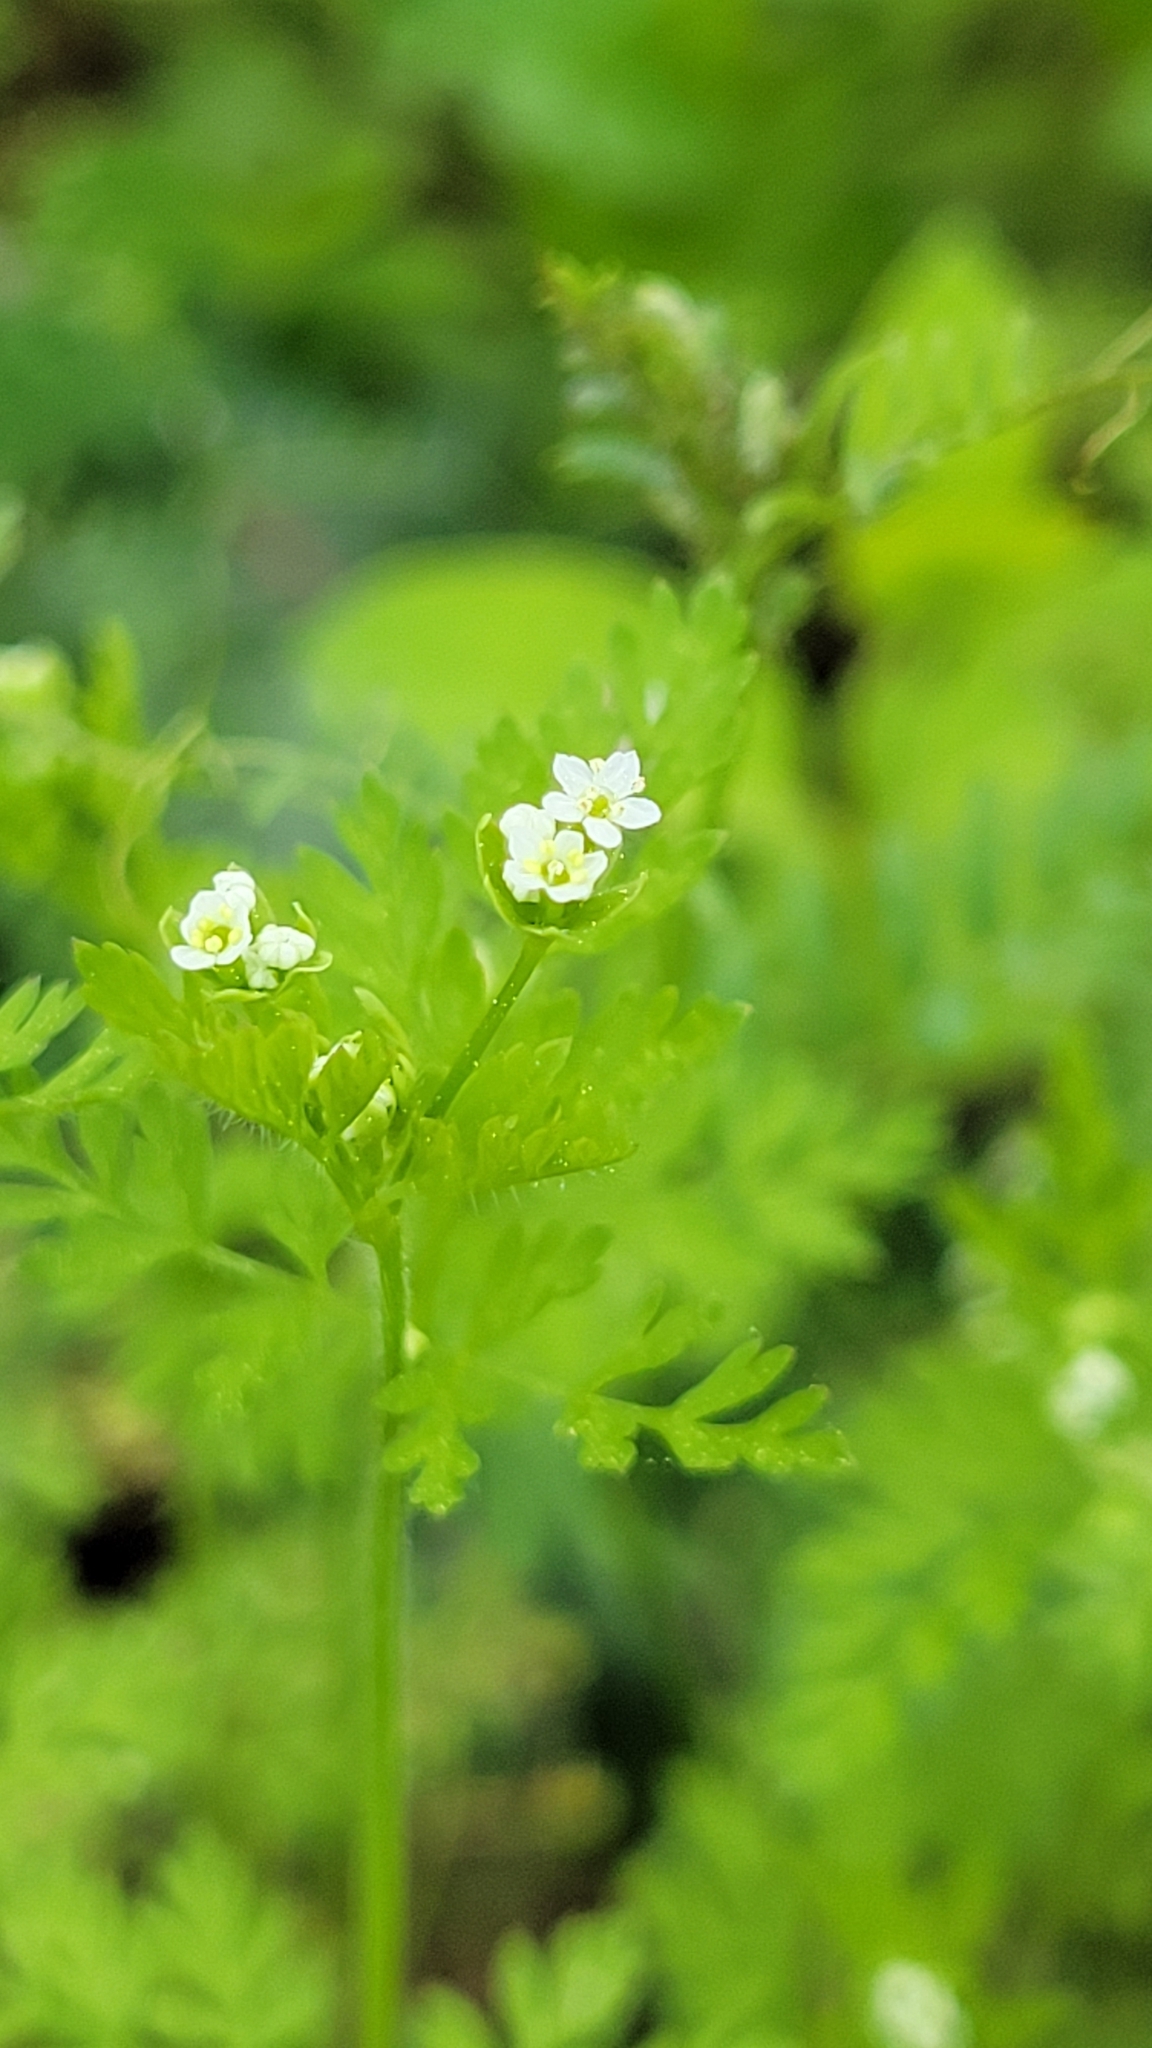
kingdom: Plantae
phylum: Tracheophyta
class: Magnoliopsida
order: Apiales
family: Apiaceae
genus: Chaerophyllum
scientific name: Chaerophyllum tainturieri
